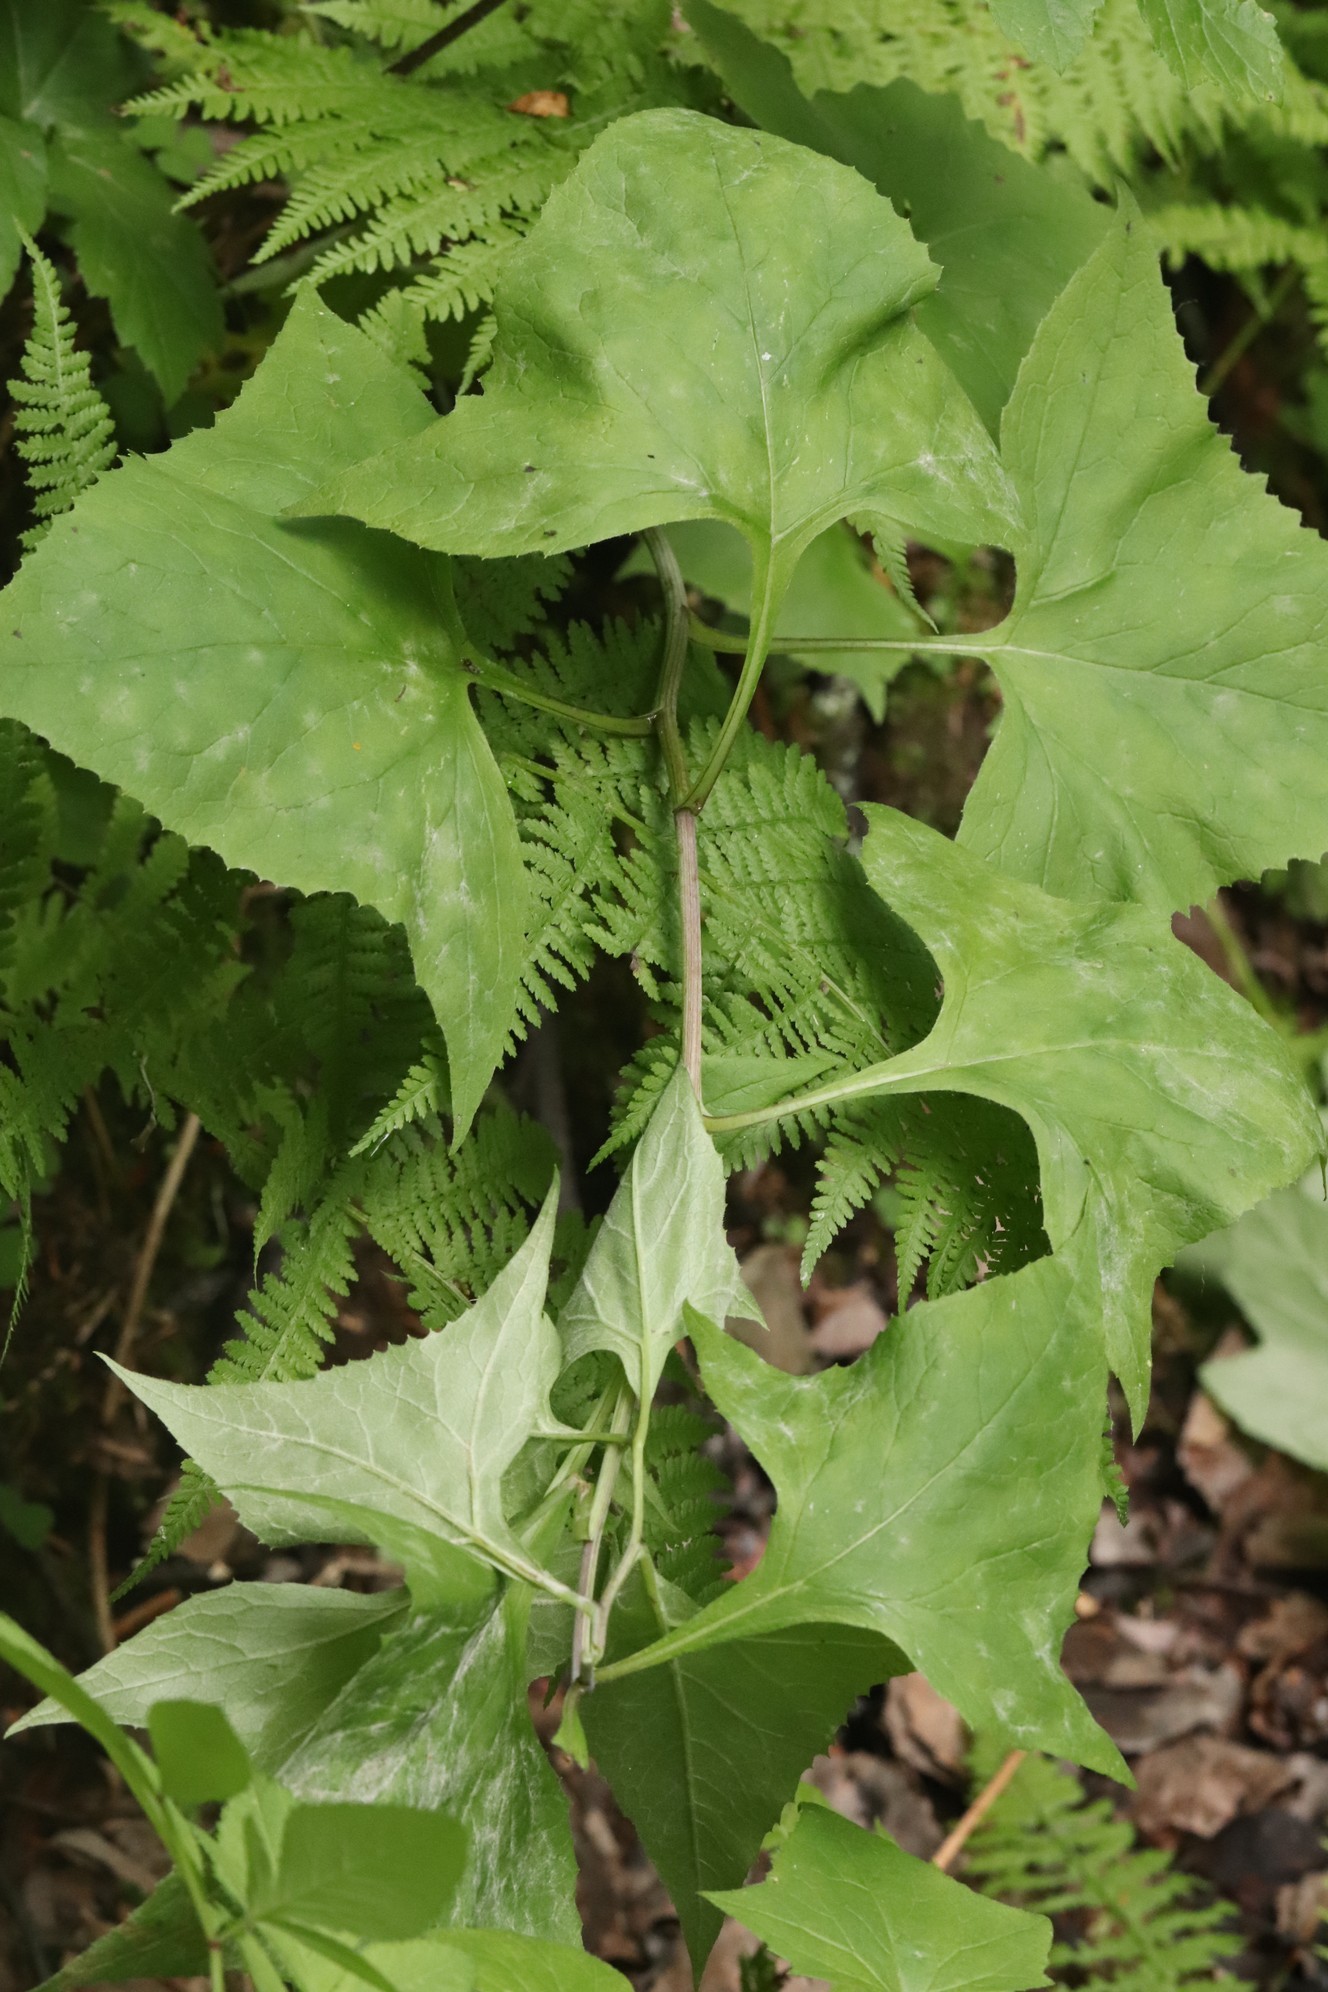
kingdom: Plantae
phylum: Tracheophyta
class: Magnoliopsida
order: Asterales
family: Asteraceae
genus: Parasenecio
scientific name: Parasenecio hastatus
